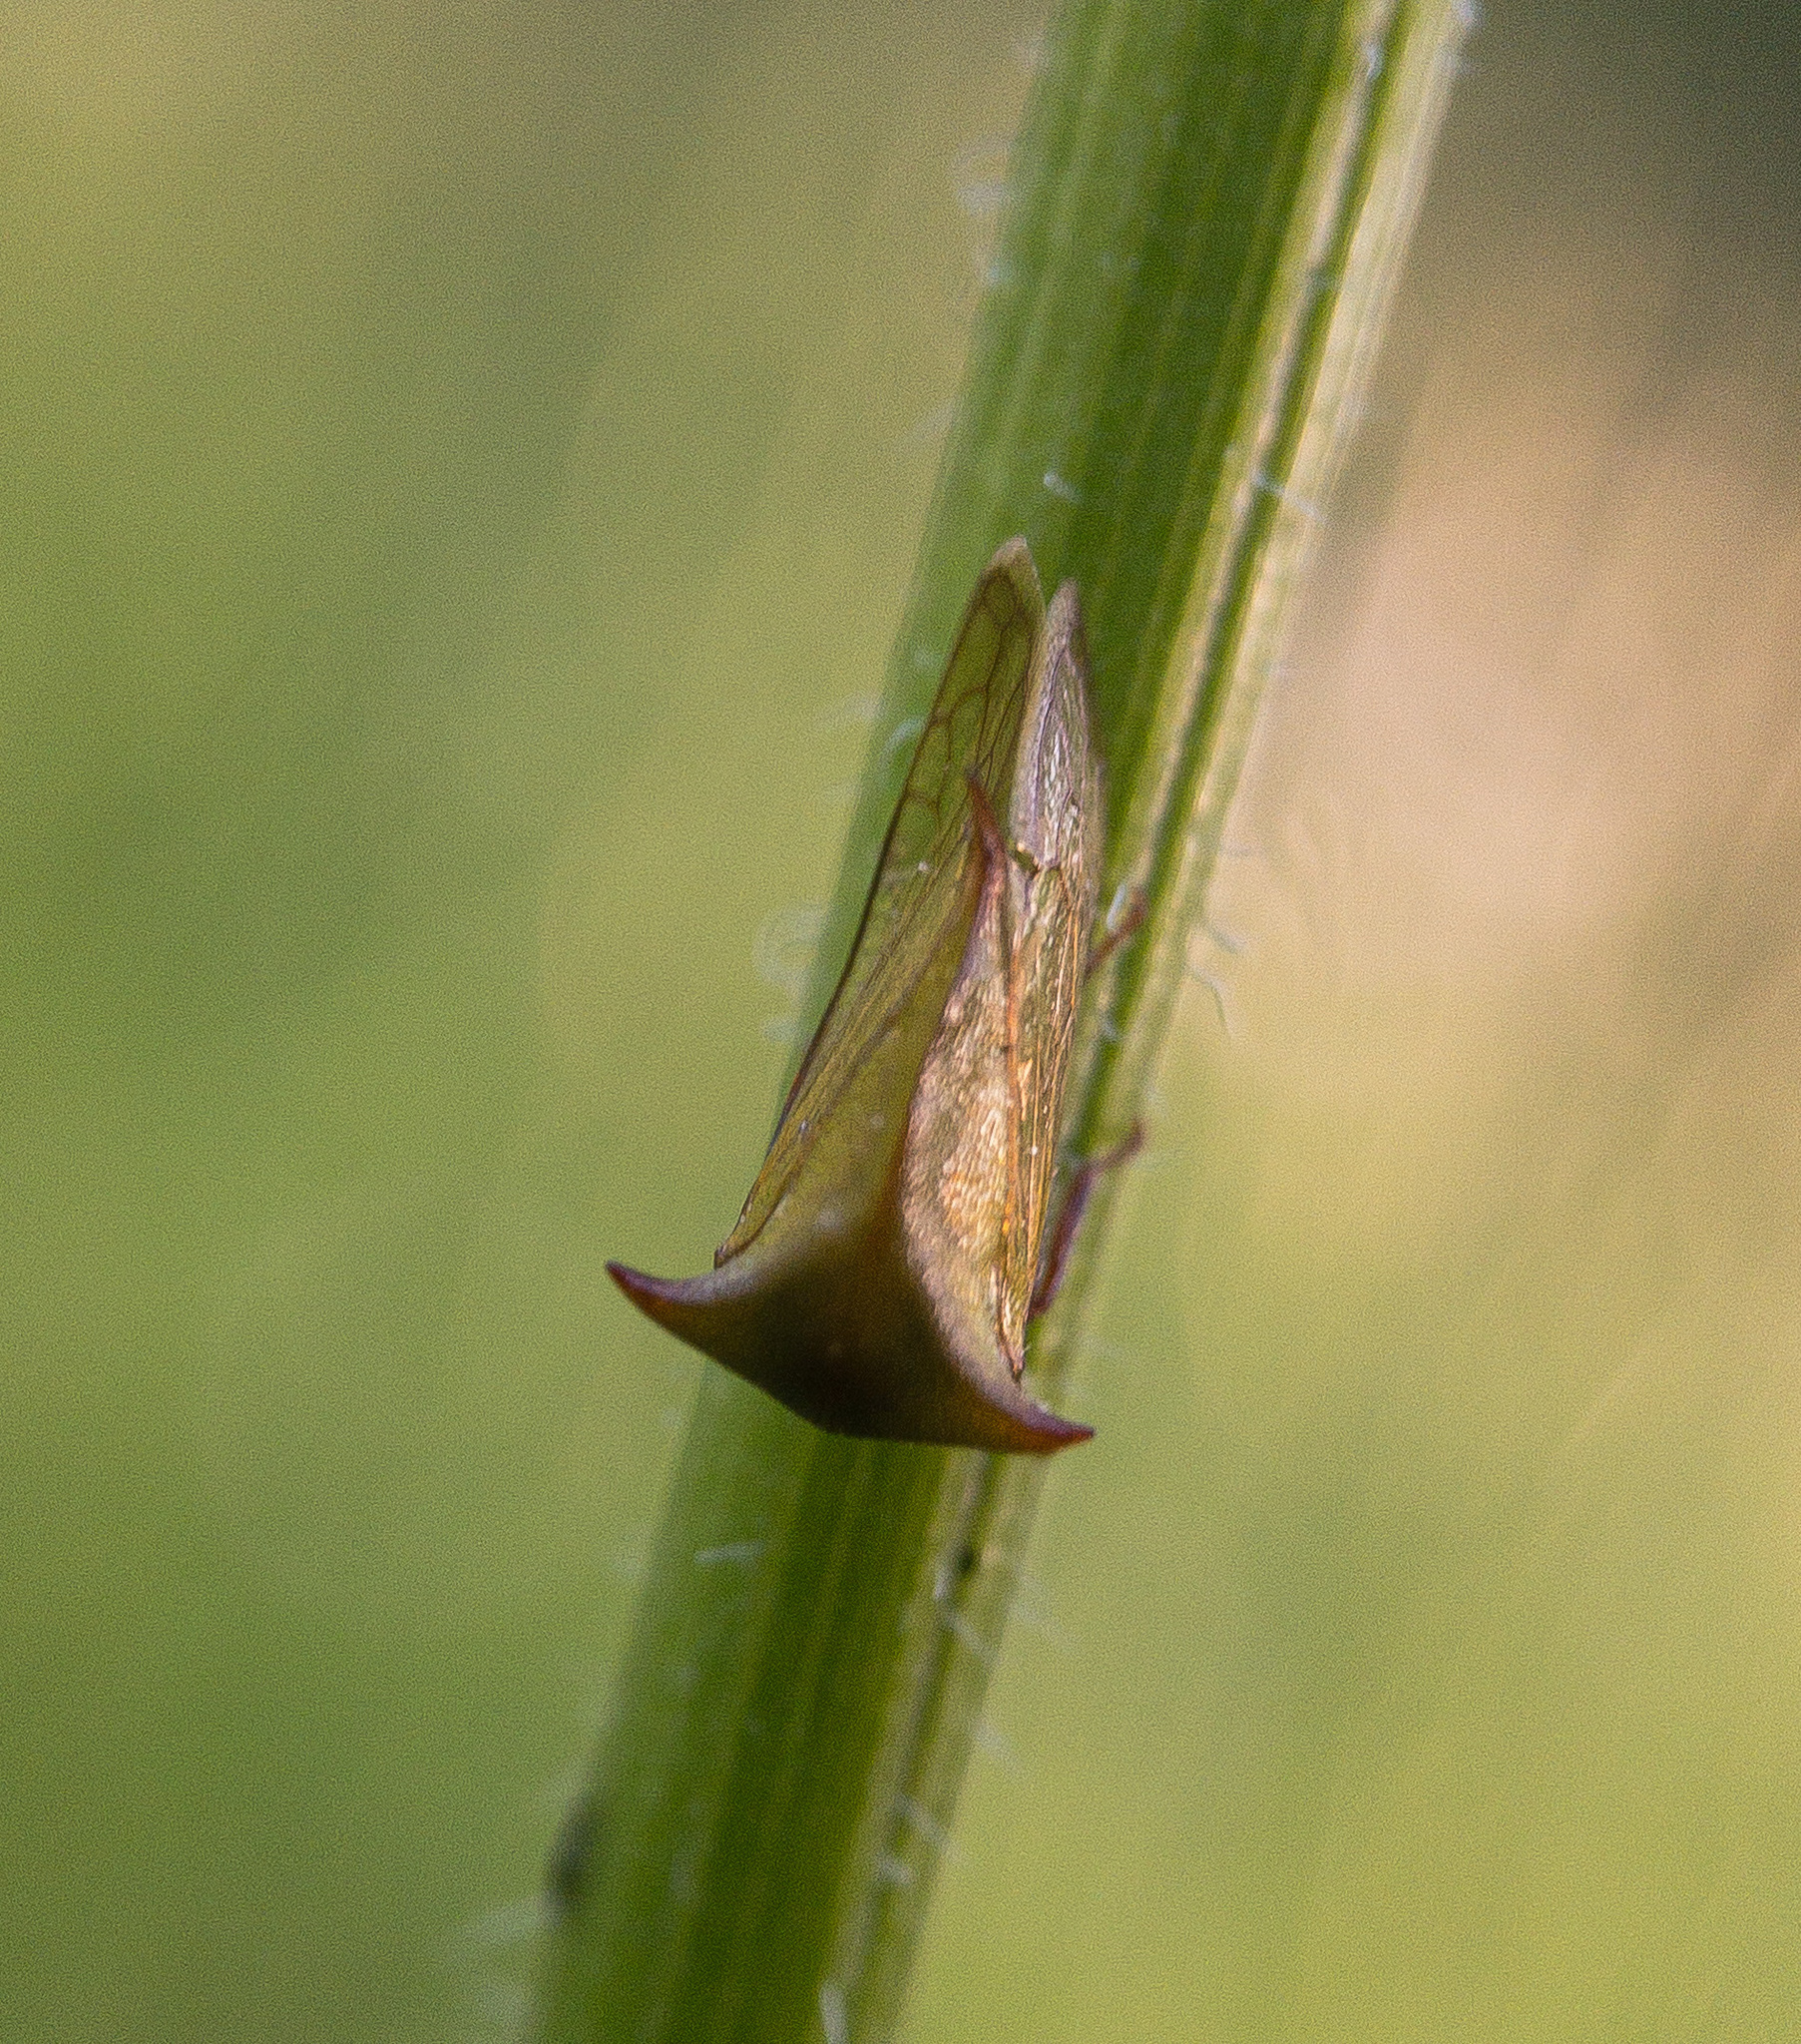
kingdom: Animalia
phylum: Arthropoda
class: Insecta
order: Hemiptera
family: Membracidae
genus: Stictocephala
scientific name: Stictocephala brevitylus
